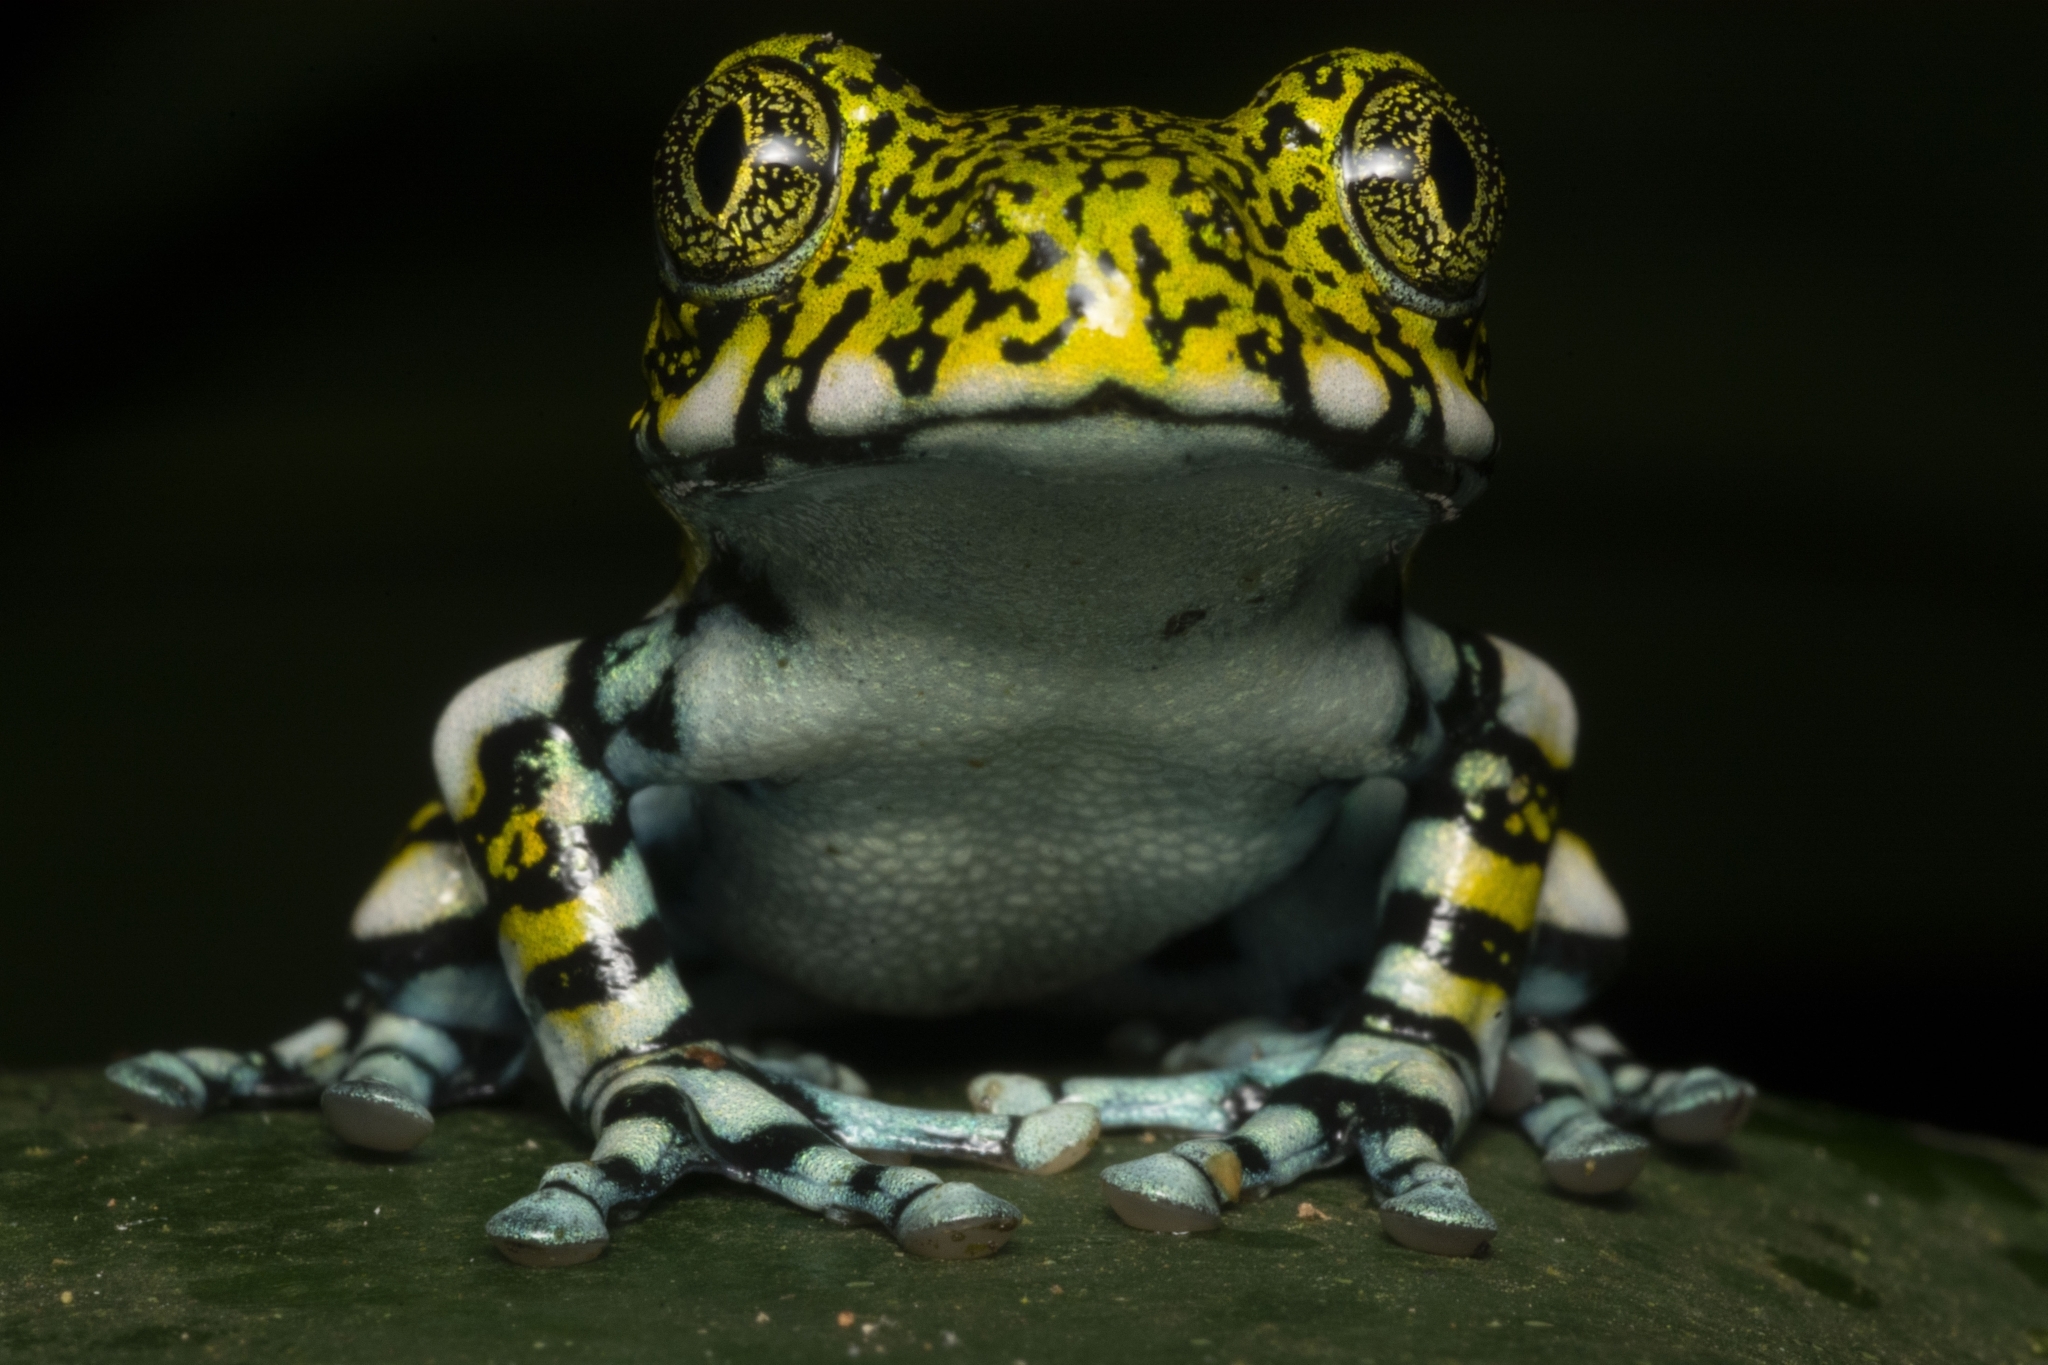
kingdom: Animalia
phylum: Chordata
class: Amphibia
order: Anura
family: Arthroleptidae
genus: Leptopelis
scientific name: Leptopelis vermiculatus
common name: Amani forest treefrog
